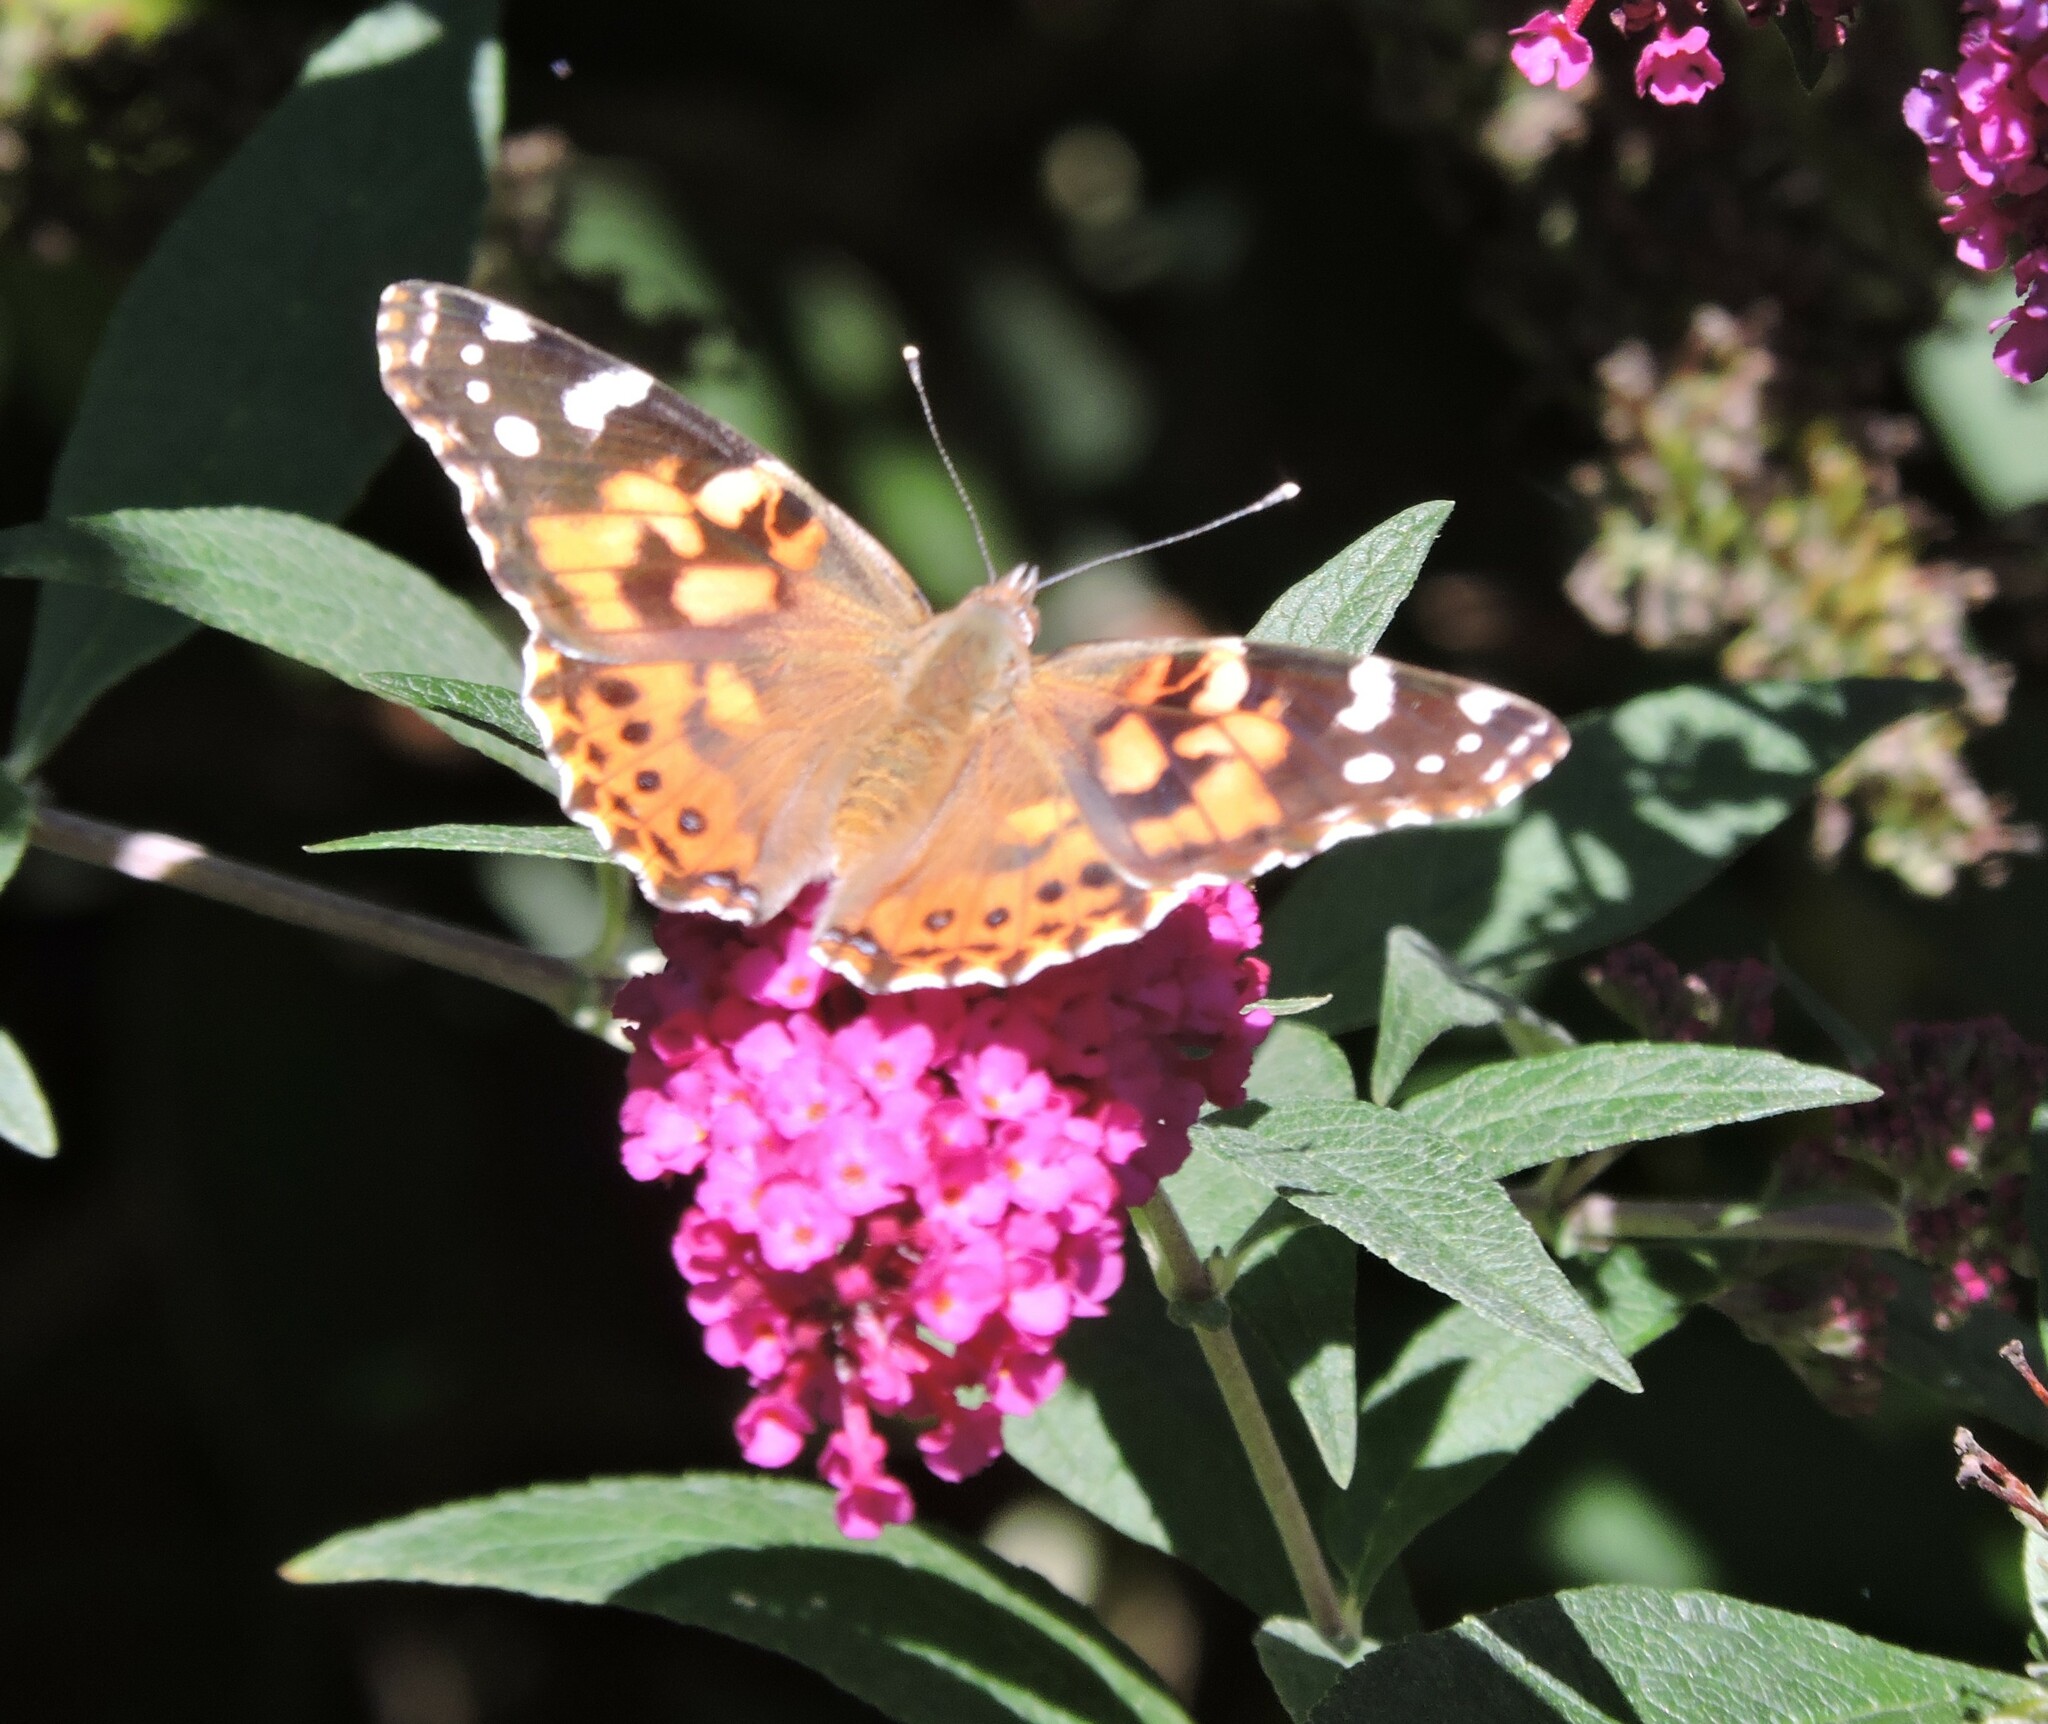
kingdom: Animalia
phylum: Arthropoda
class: Insecta
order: Lepidoptera
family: Nymphalidae
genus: Vanessa
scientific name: Vanessa cardui
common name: Painted lady
